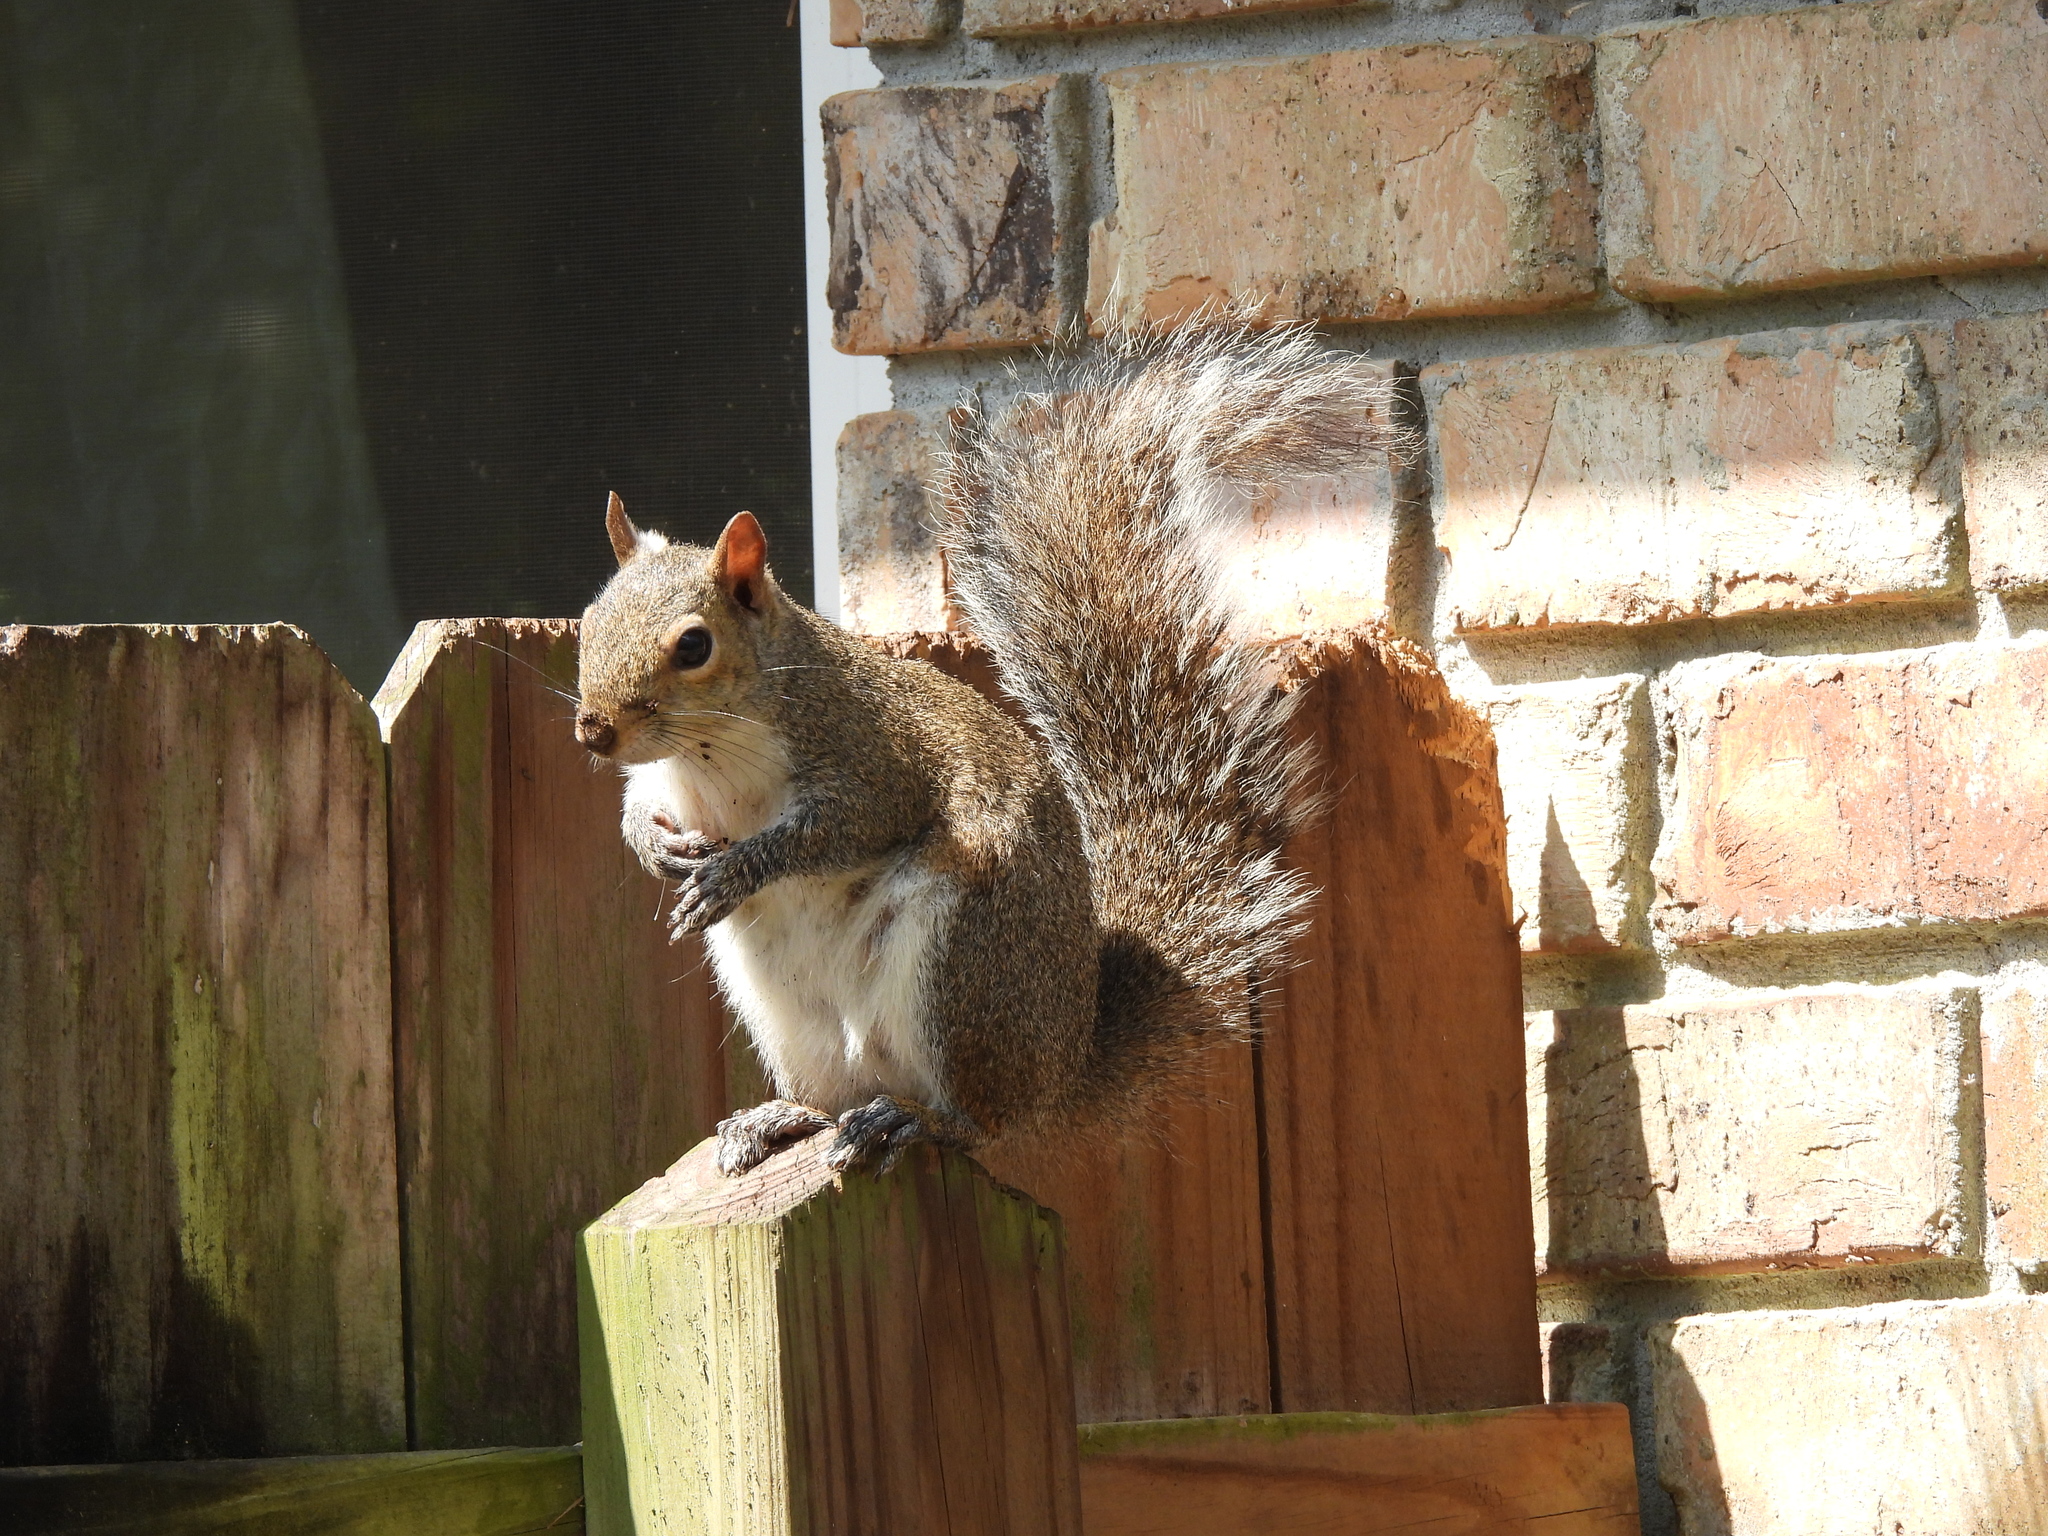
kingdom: Animalia
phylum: Chordata
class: Mammalia
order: Rodentia
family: Sciuridae
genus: Sciurus
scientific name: Sciurus carolinensis
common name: Eastern gray squirrel
